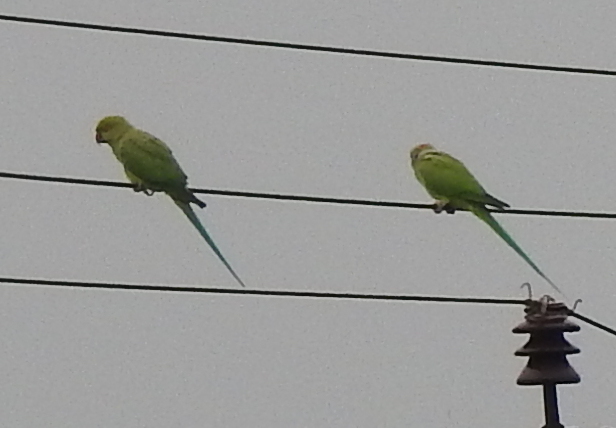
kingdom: Animalia
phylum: Chordata
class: Aves
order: Psittaciformes
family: Psittacidae
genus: Psittacula
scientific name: Psittacula krameri
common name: Rose-ringed parakeet
